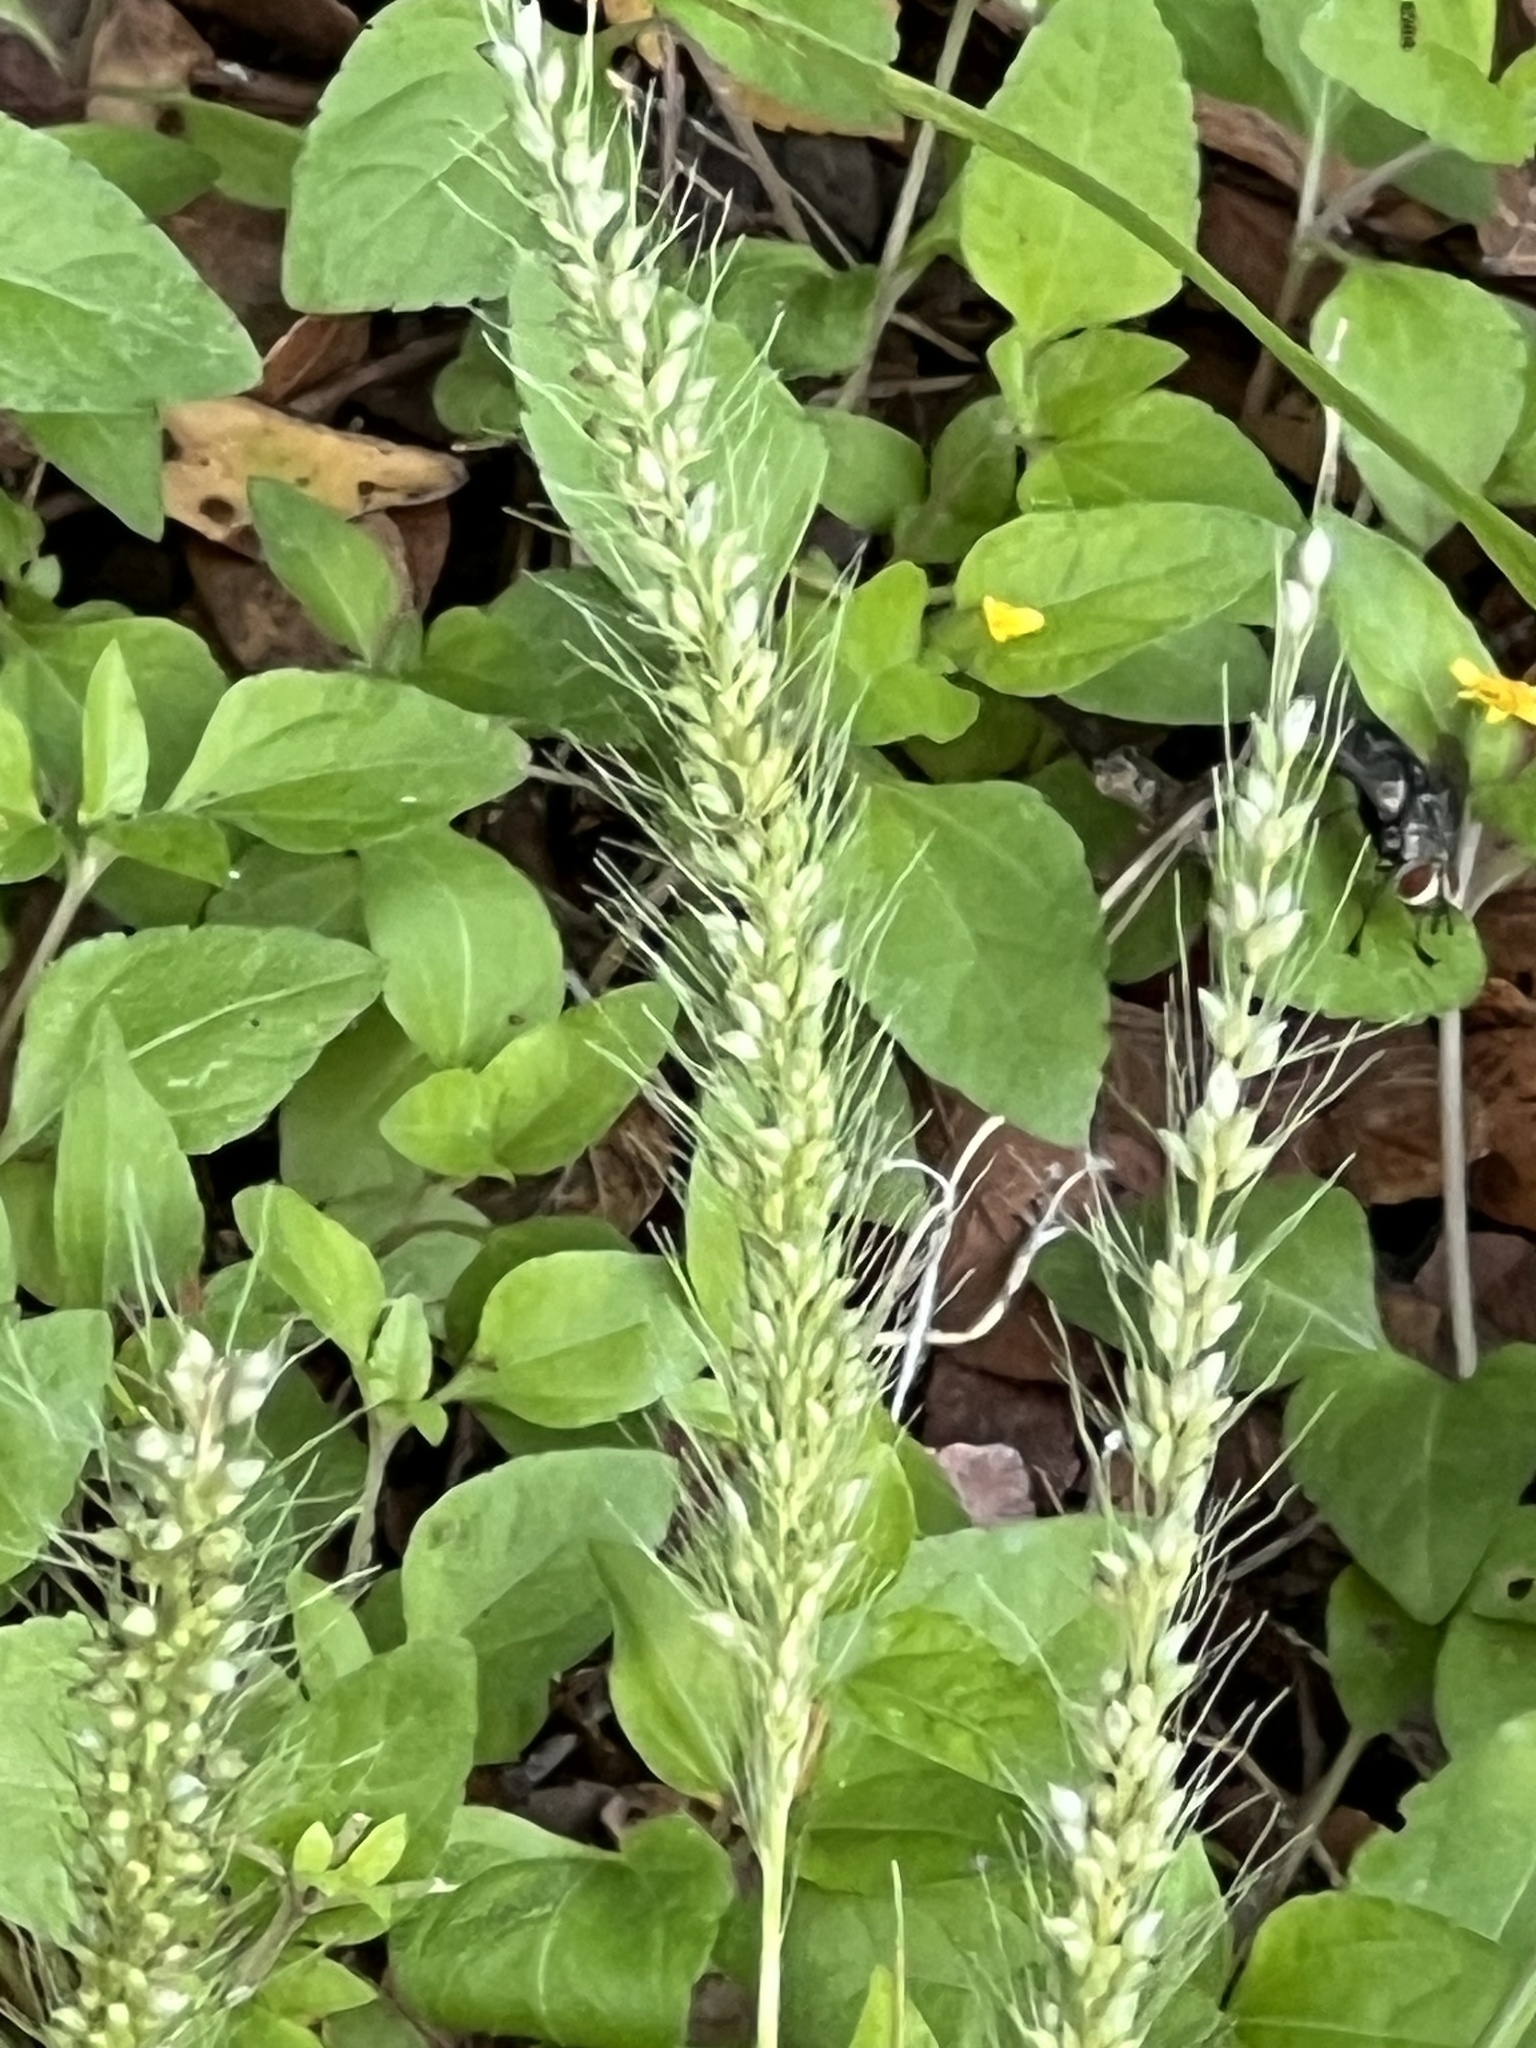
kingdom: Plantae
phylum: Tracheophyta
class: Liliopsida
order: Poales
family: Poaceae
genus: Setaria
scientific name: Setaria scheelei
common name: Southwestern bristle grass
